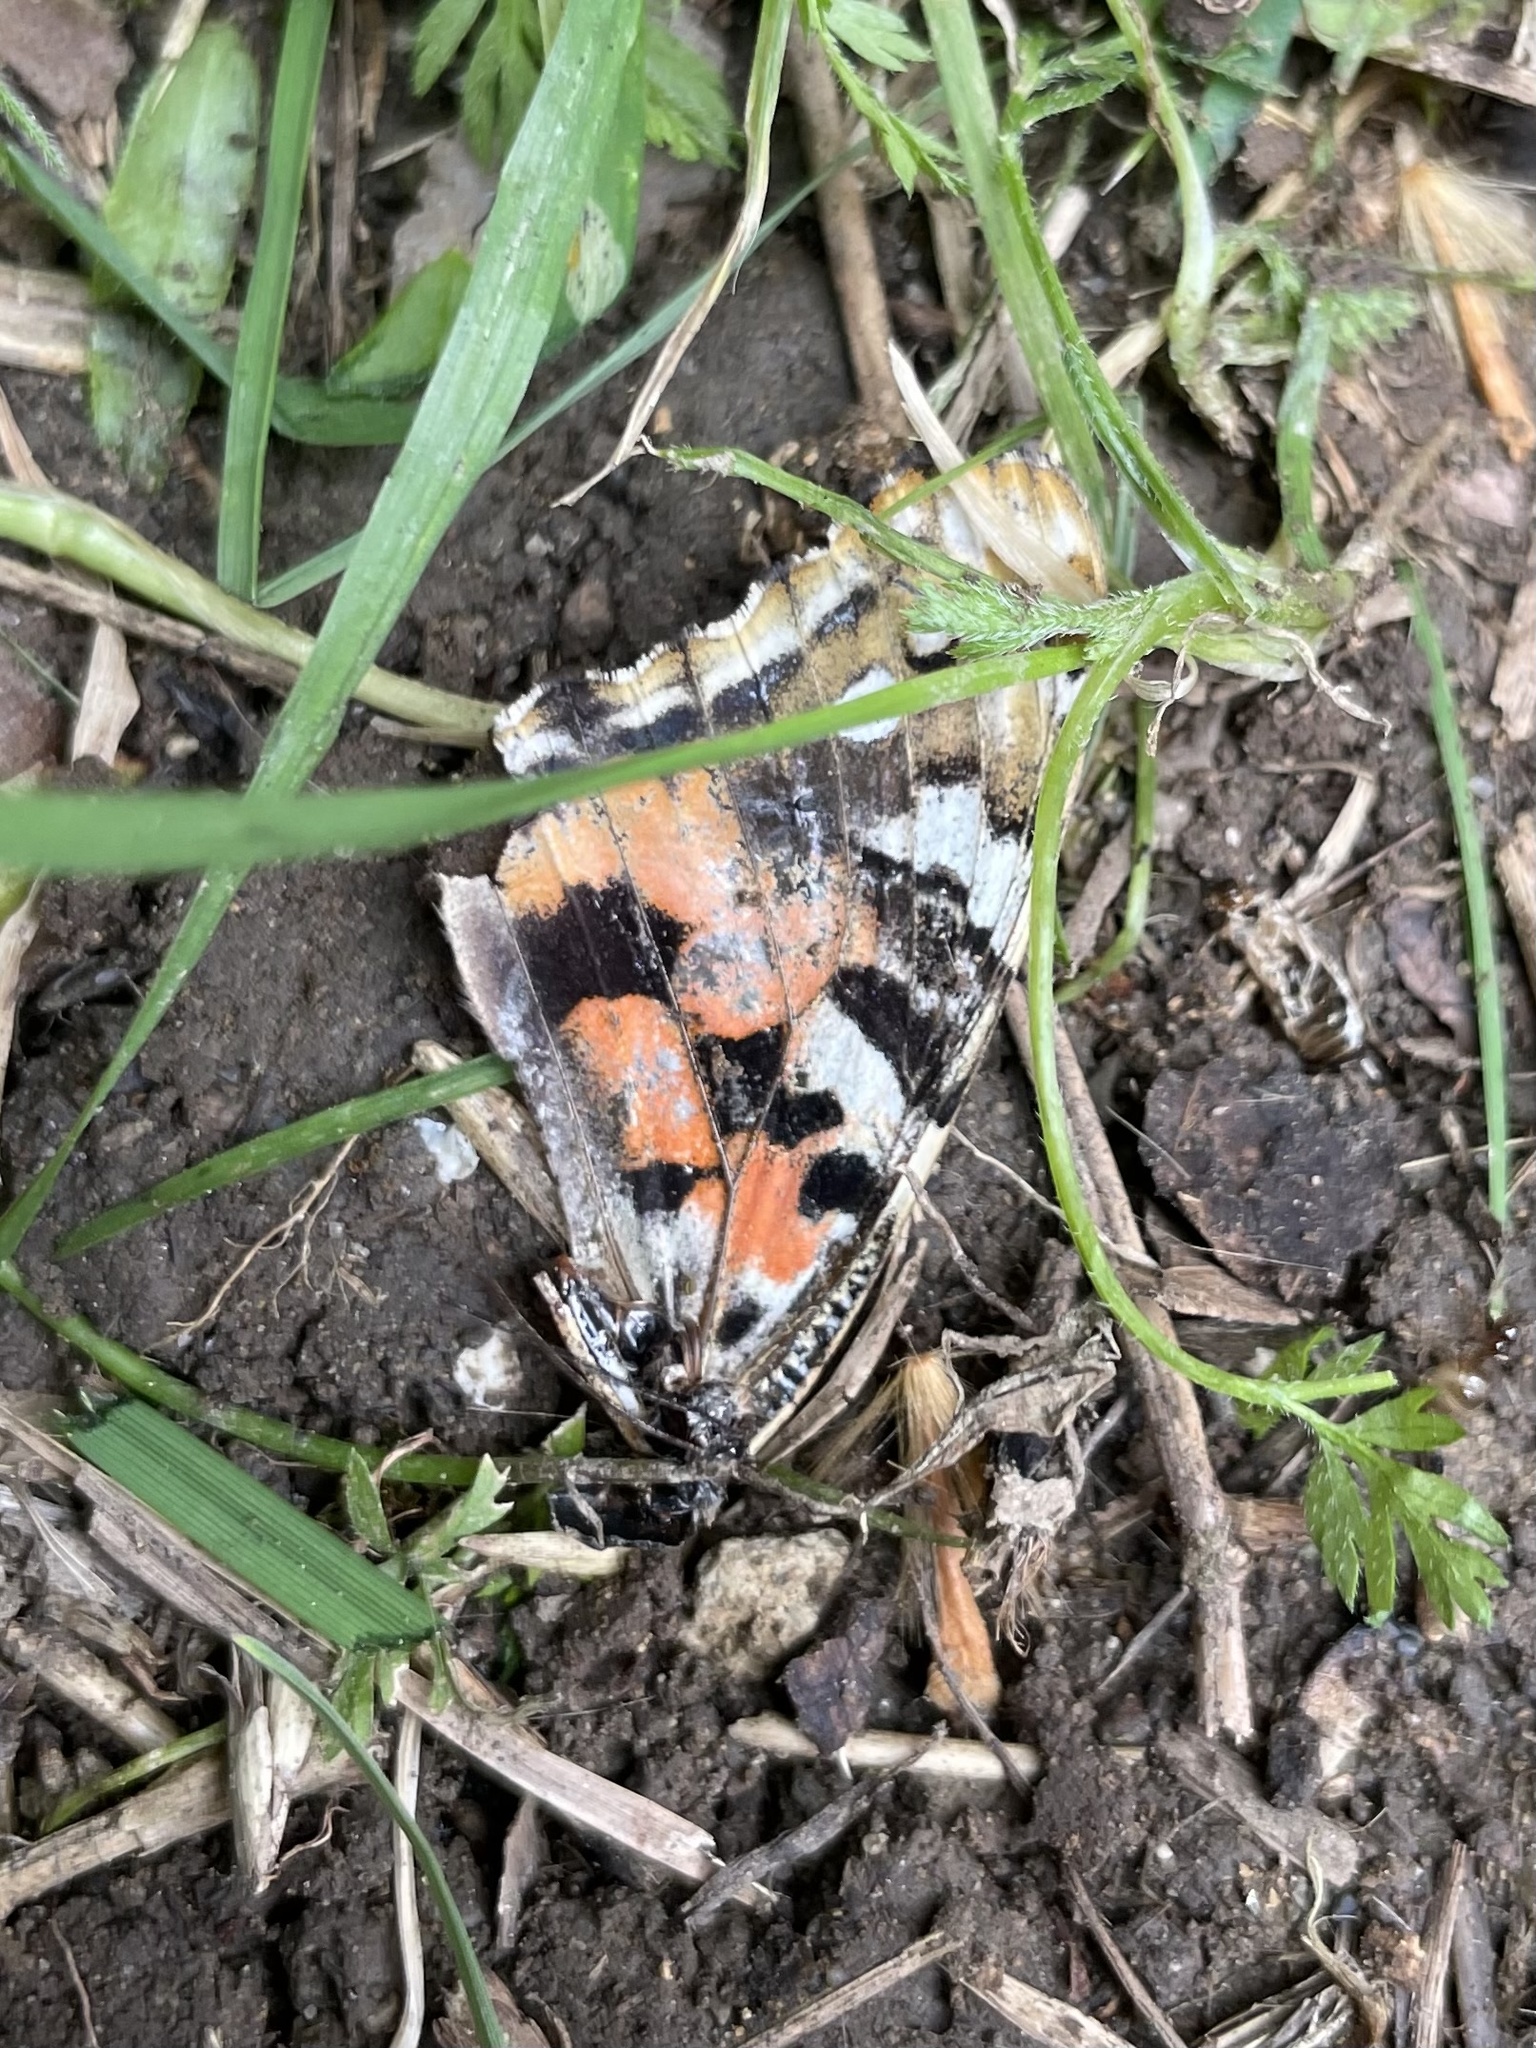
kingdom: Animalia
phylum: Arthropoda
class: Insecta
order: Lepidoptera
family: Nymphalidae
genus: Vanessa
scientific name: Vanessa cardui
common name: Painted lady
